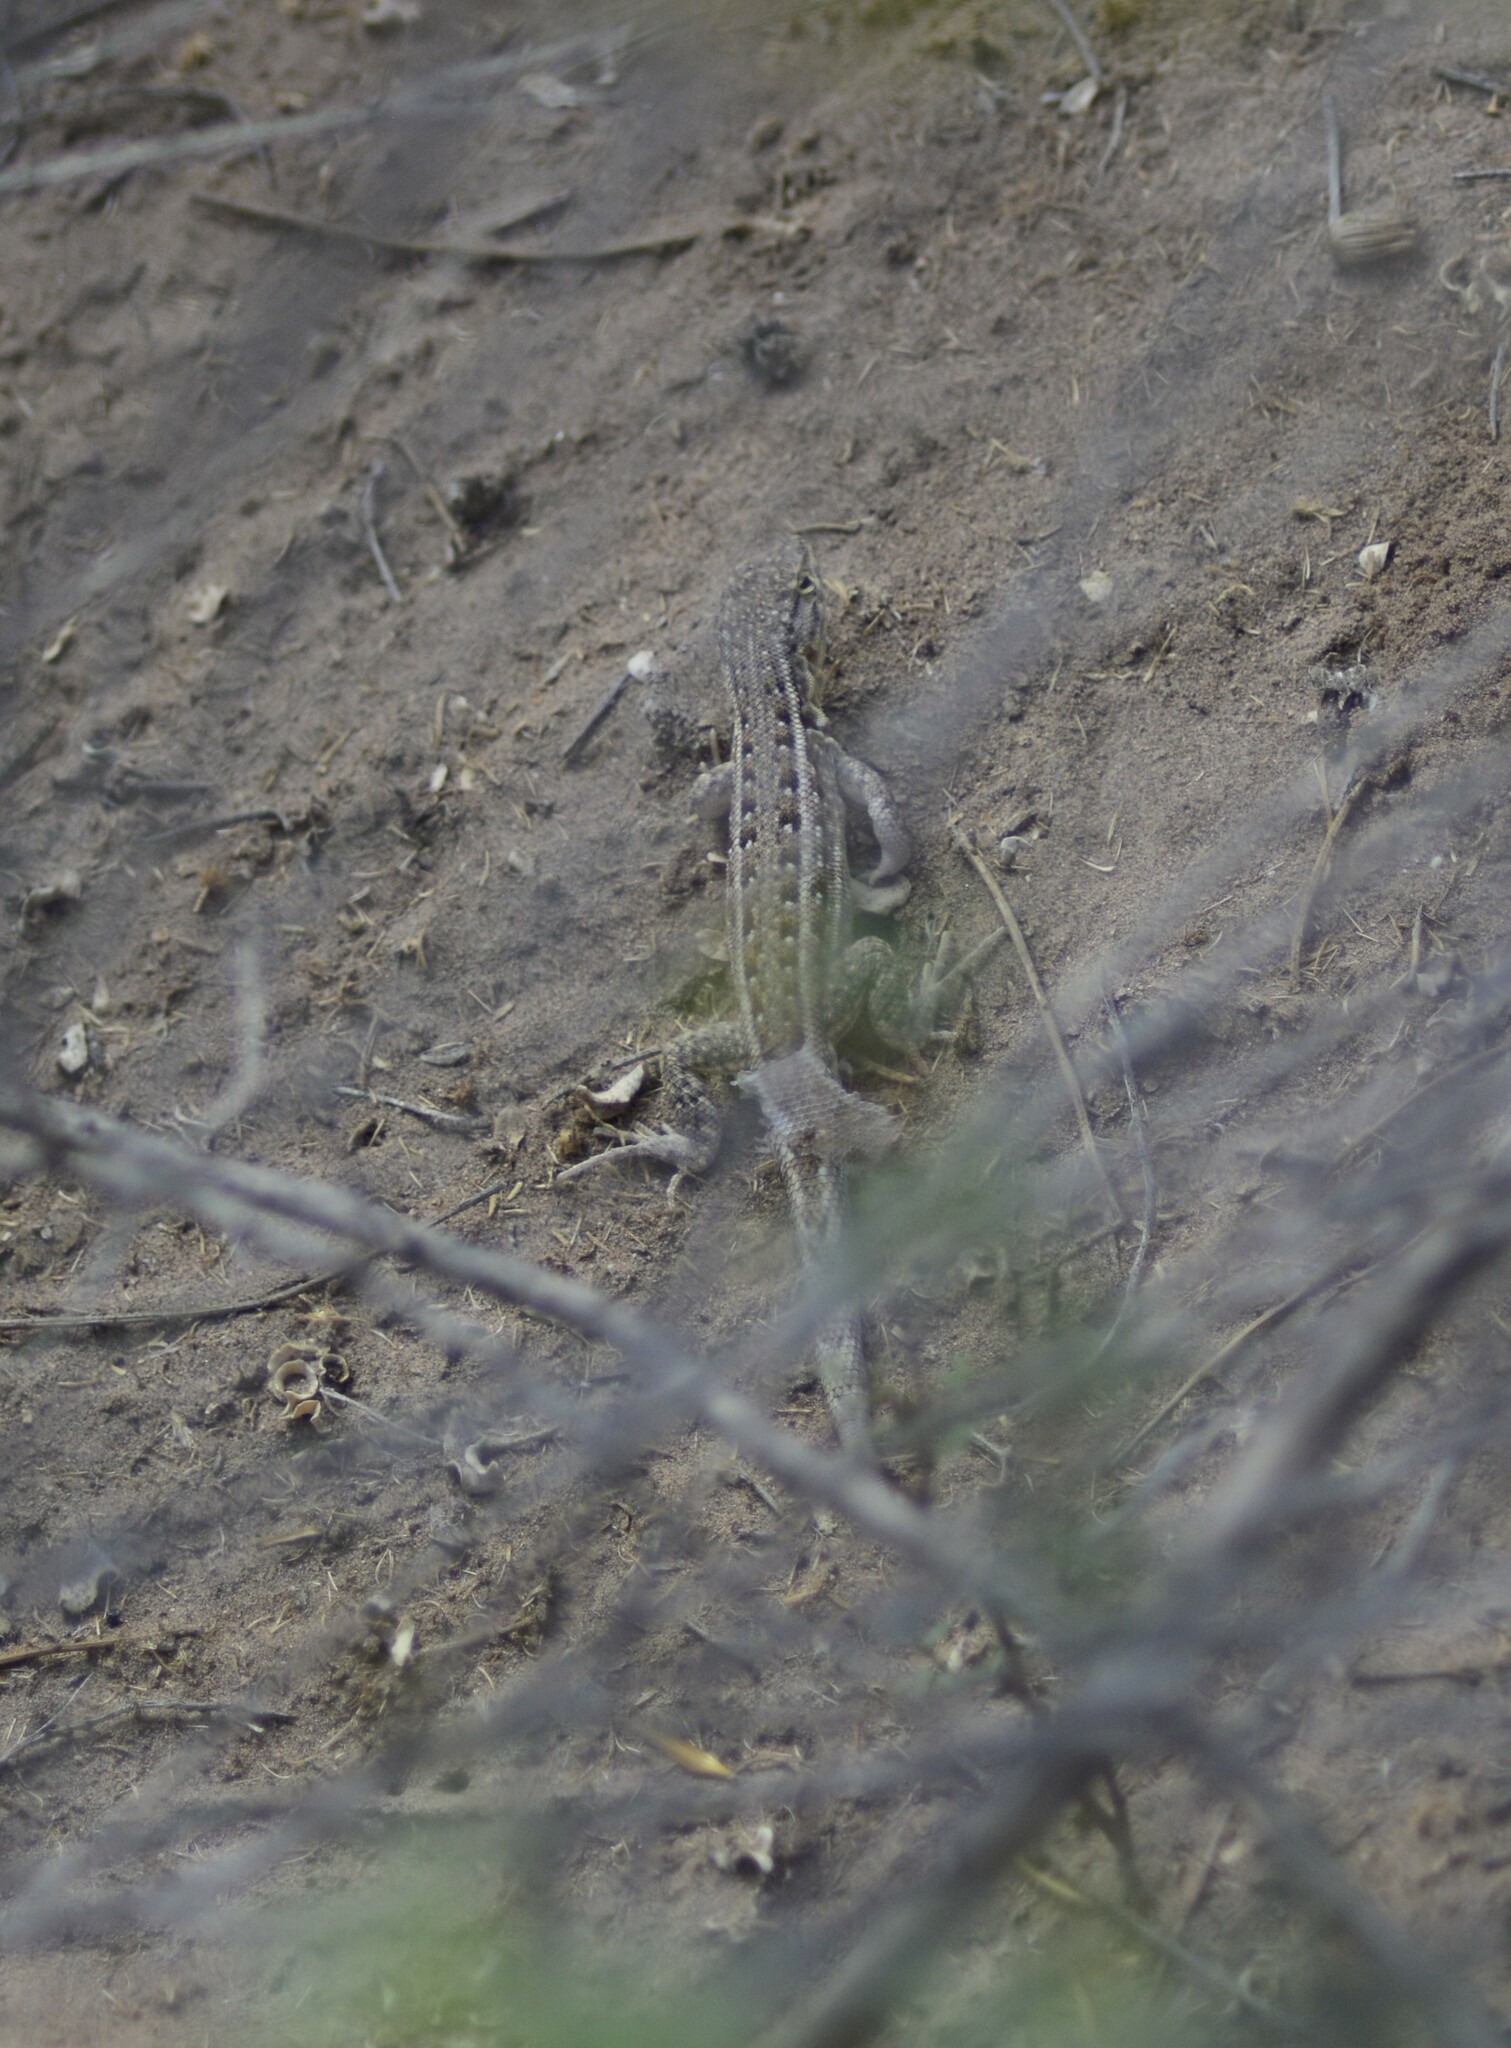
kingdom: Animalia
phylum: Chordata
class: Squamata
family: Liolaemidae
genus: Liolaemus
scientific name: Liolaemus grosseorum
